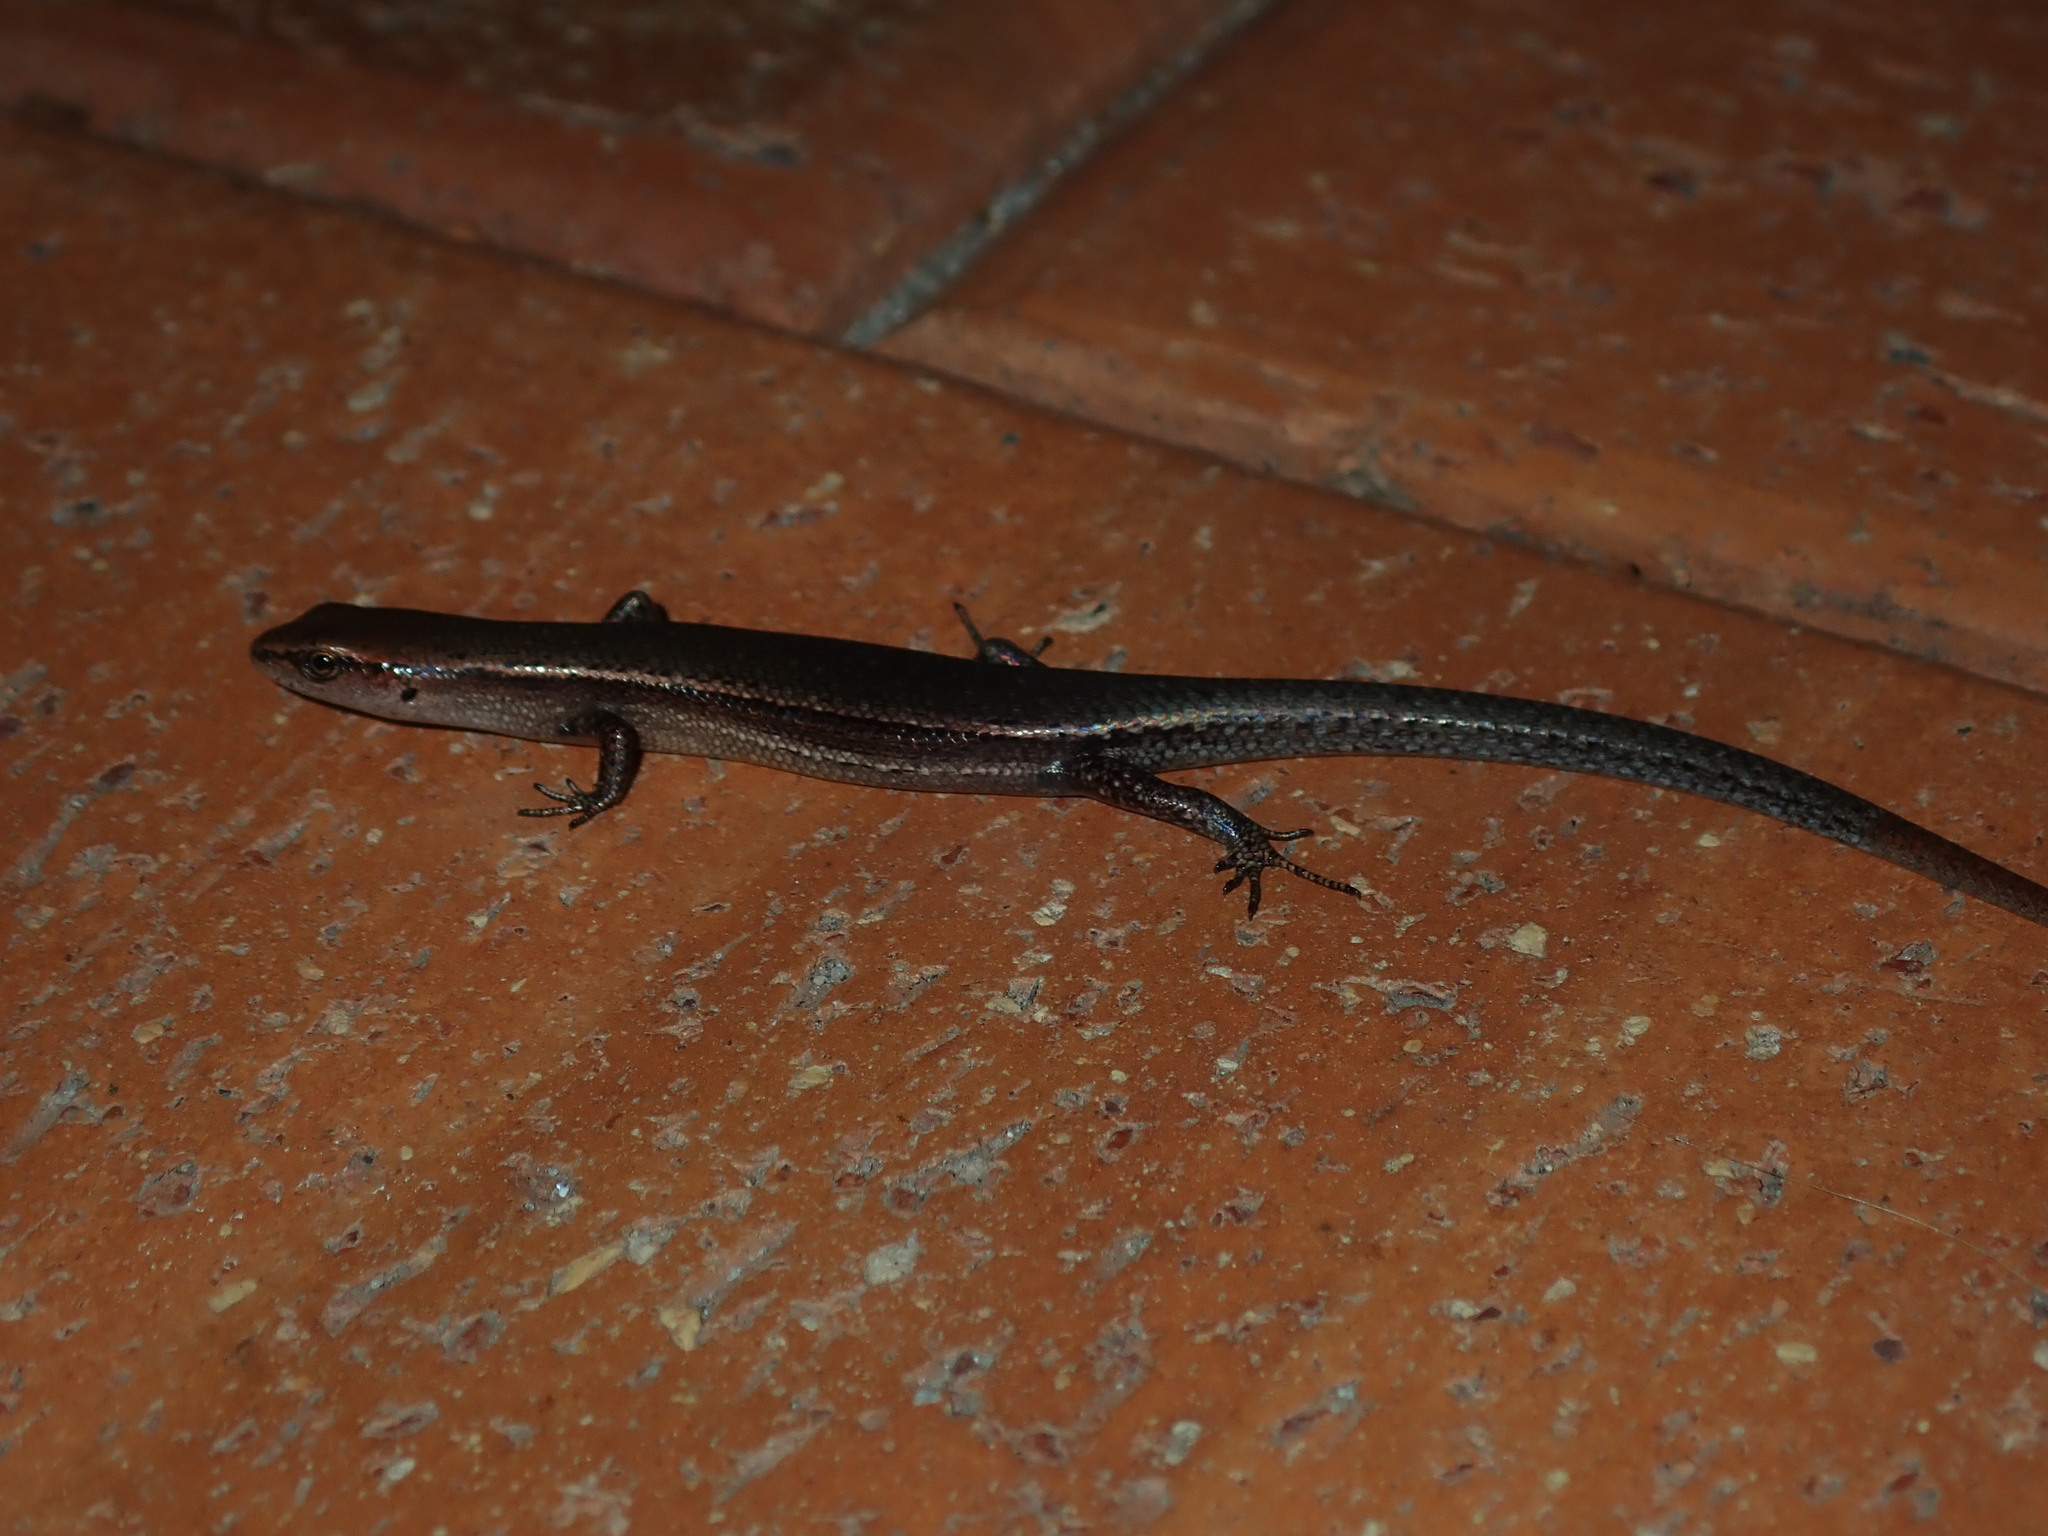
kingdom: Animalia
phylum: Chordata
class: Squamata
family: Scincidae
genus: Lampropholis
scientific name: Lampropholis delicata
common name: Plague skink
